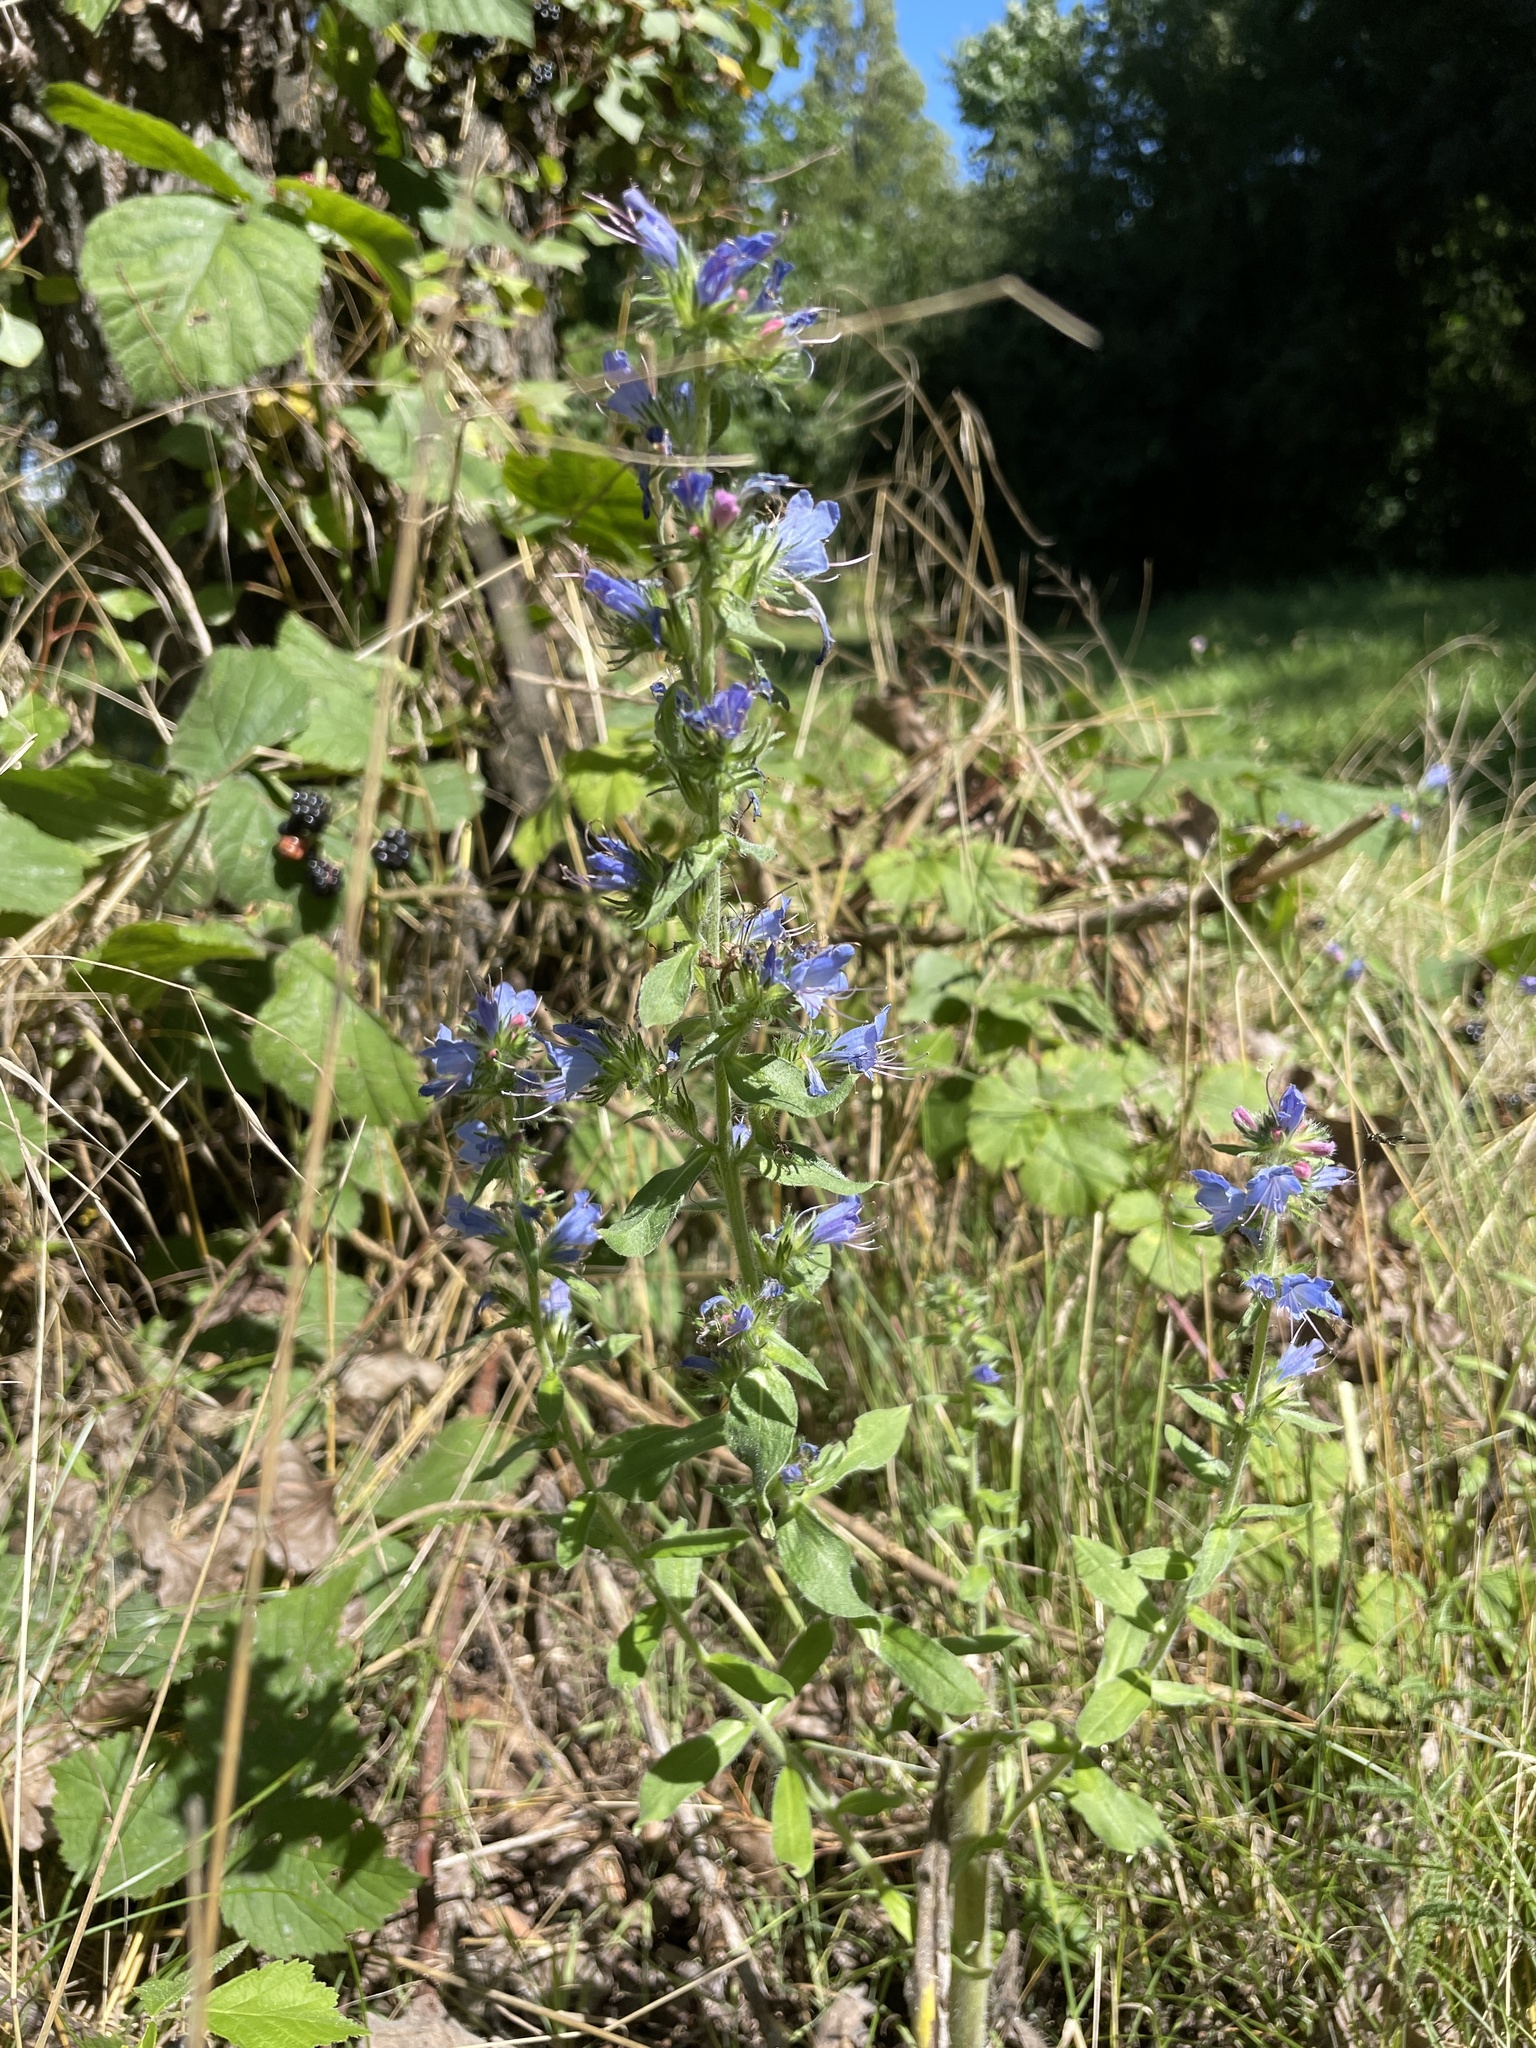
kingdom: Plantae
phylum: Tracheophyta
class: Magnoliopsida
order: Boraginales
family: Boraginaceae
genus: Echium
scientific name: Echium vulgare
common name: Common viper's bugloss
